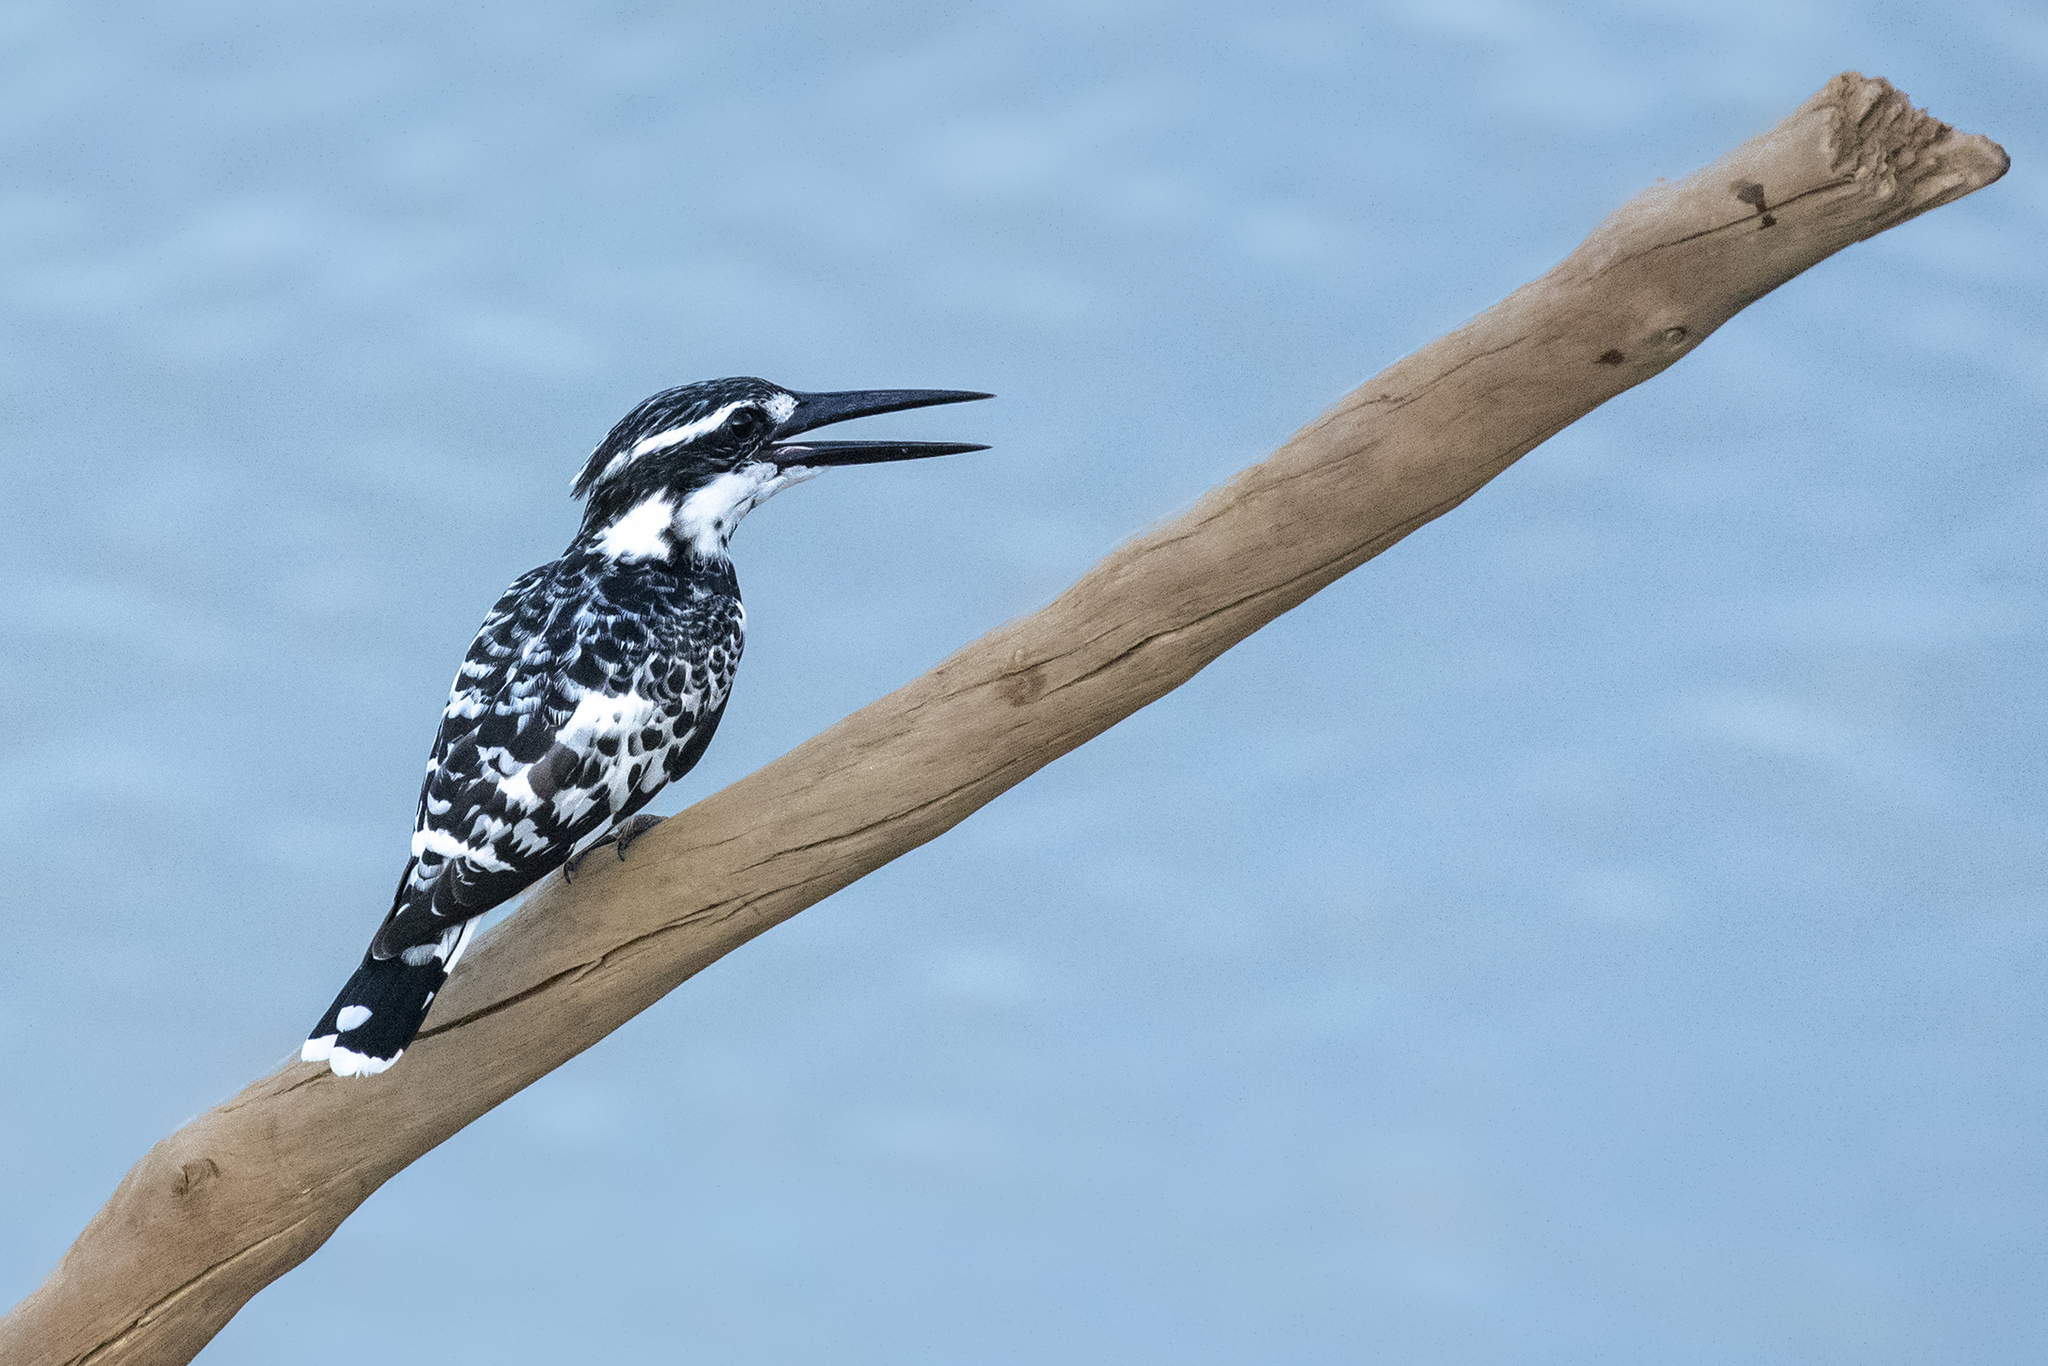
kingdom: Animalia
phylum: Chordata
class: Aves
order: Coraciiformes
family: Alcedinidae
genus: Ceryle
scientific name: Ceryle rudis
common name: Pied kingfisher
